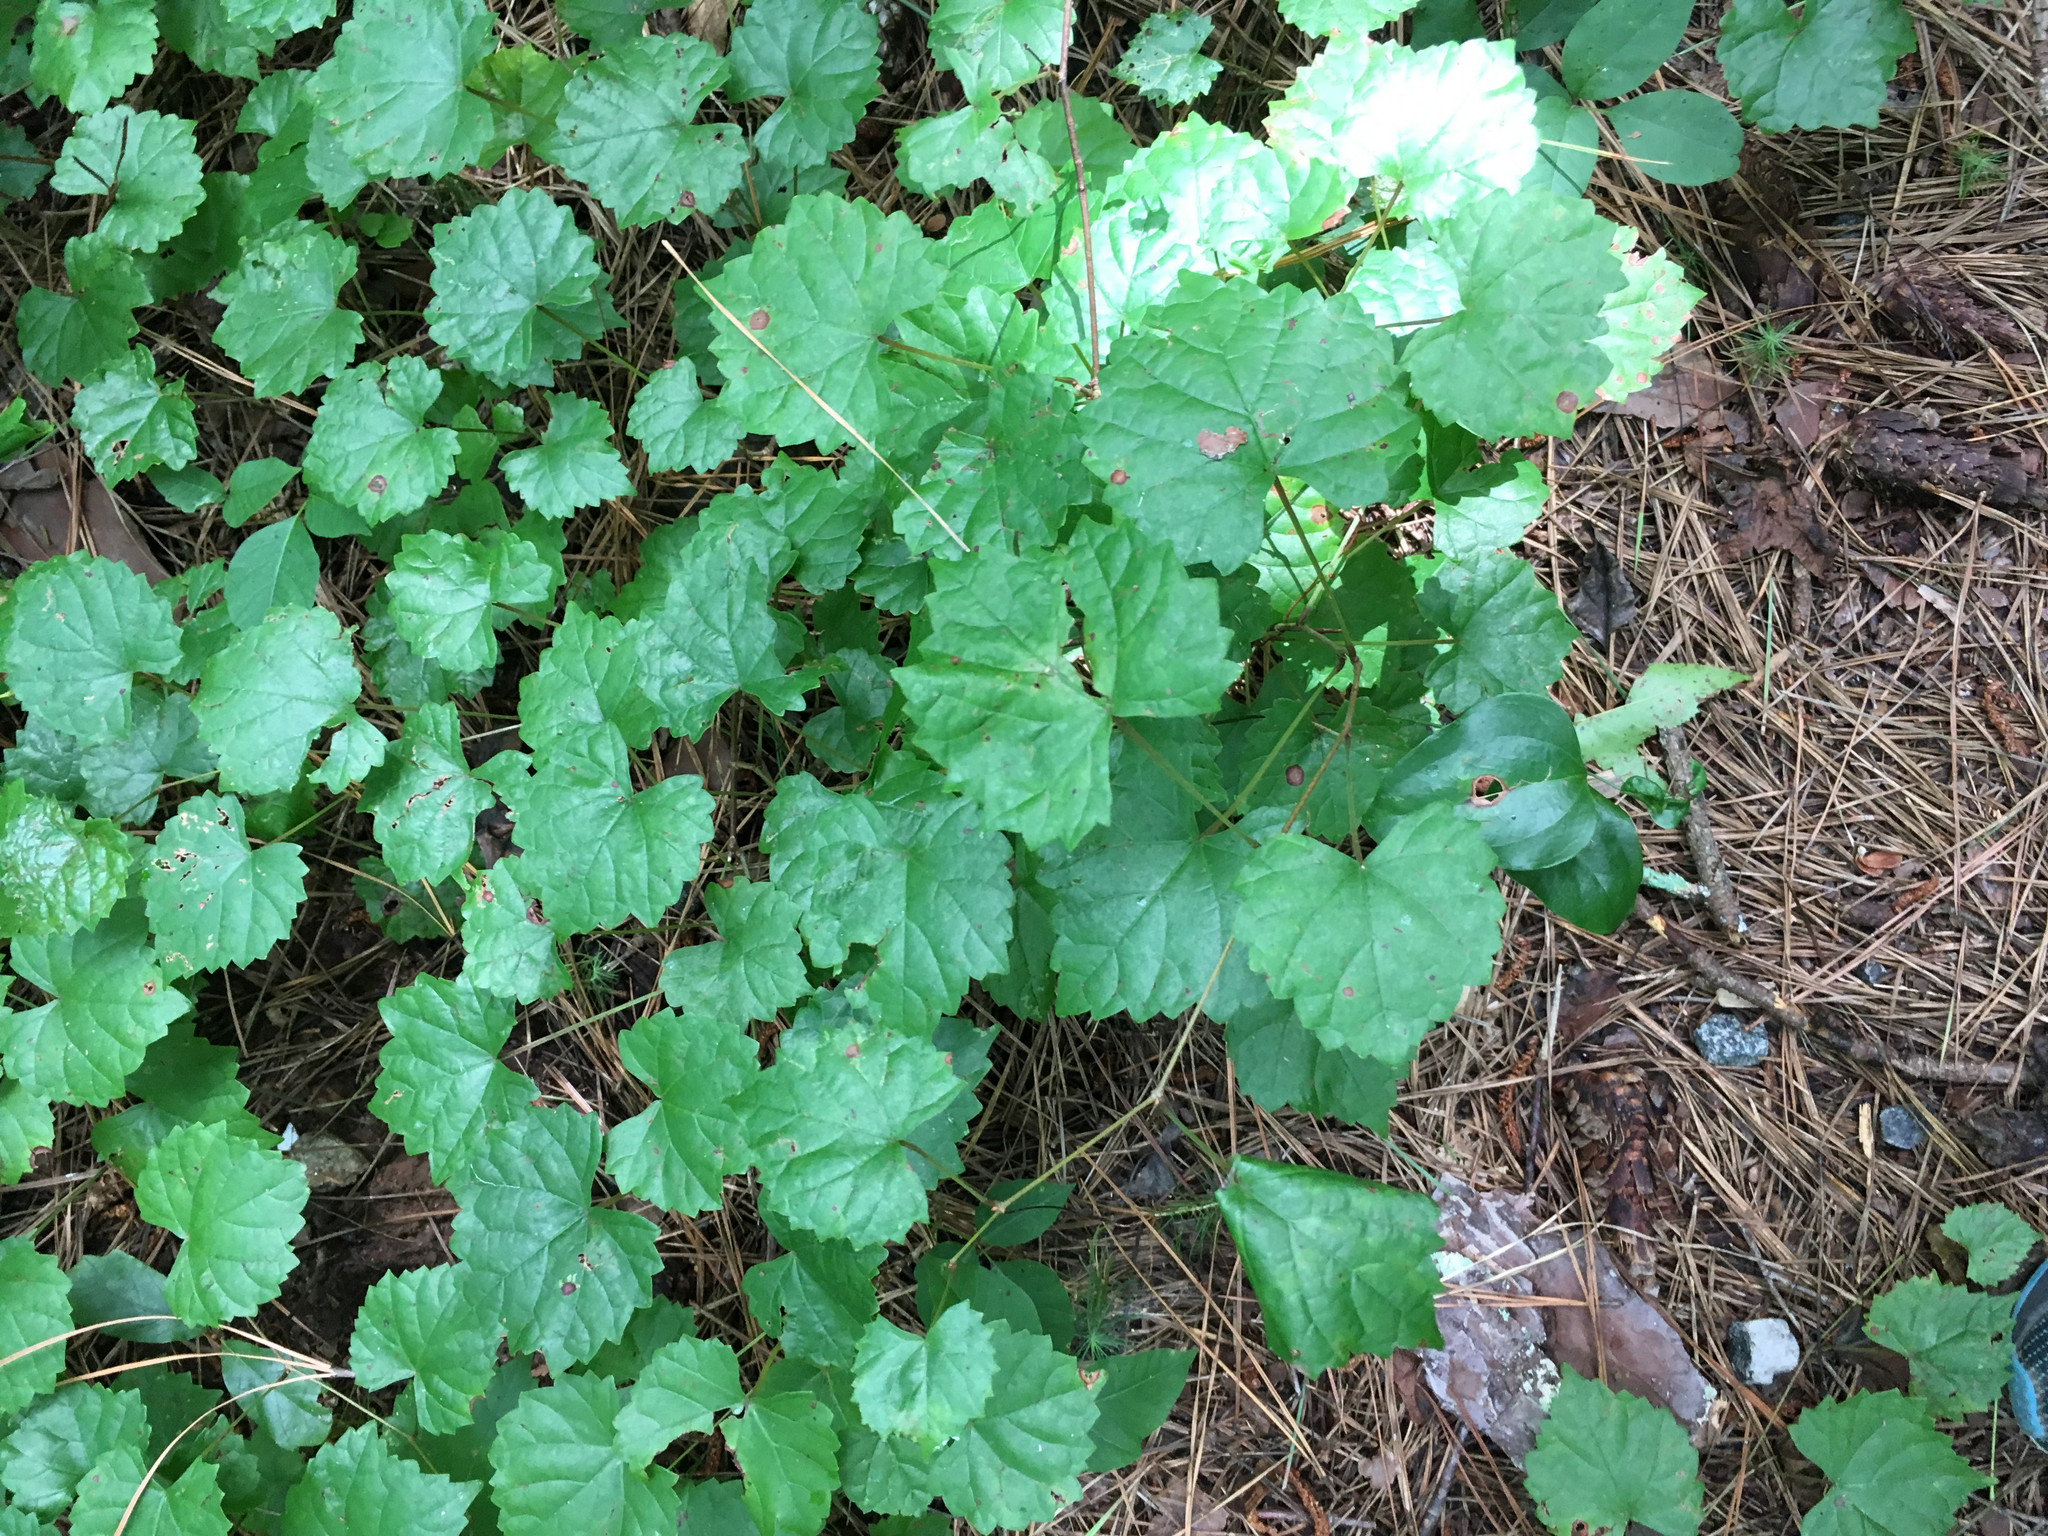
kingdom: Plantae
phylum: Tracheophyta
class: Magnoliopsida
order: Vitales
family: Vitaceae
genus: Vitis
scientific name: Vitis rotundifolia
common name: Muscadine grape
